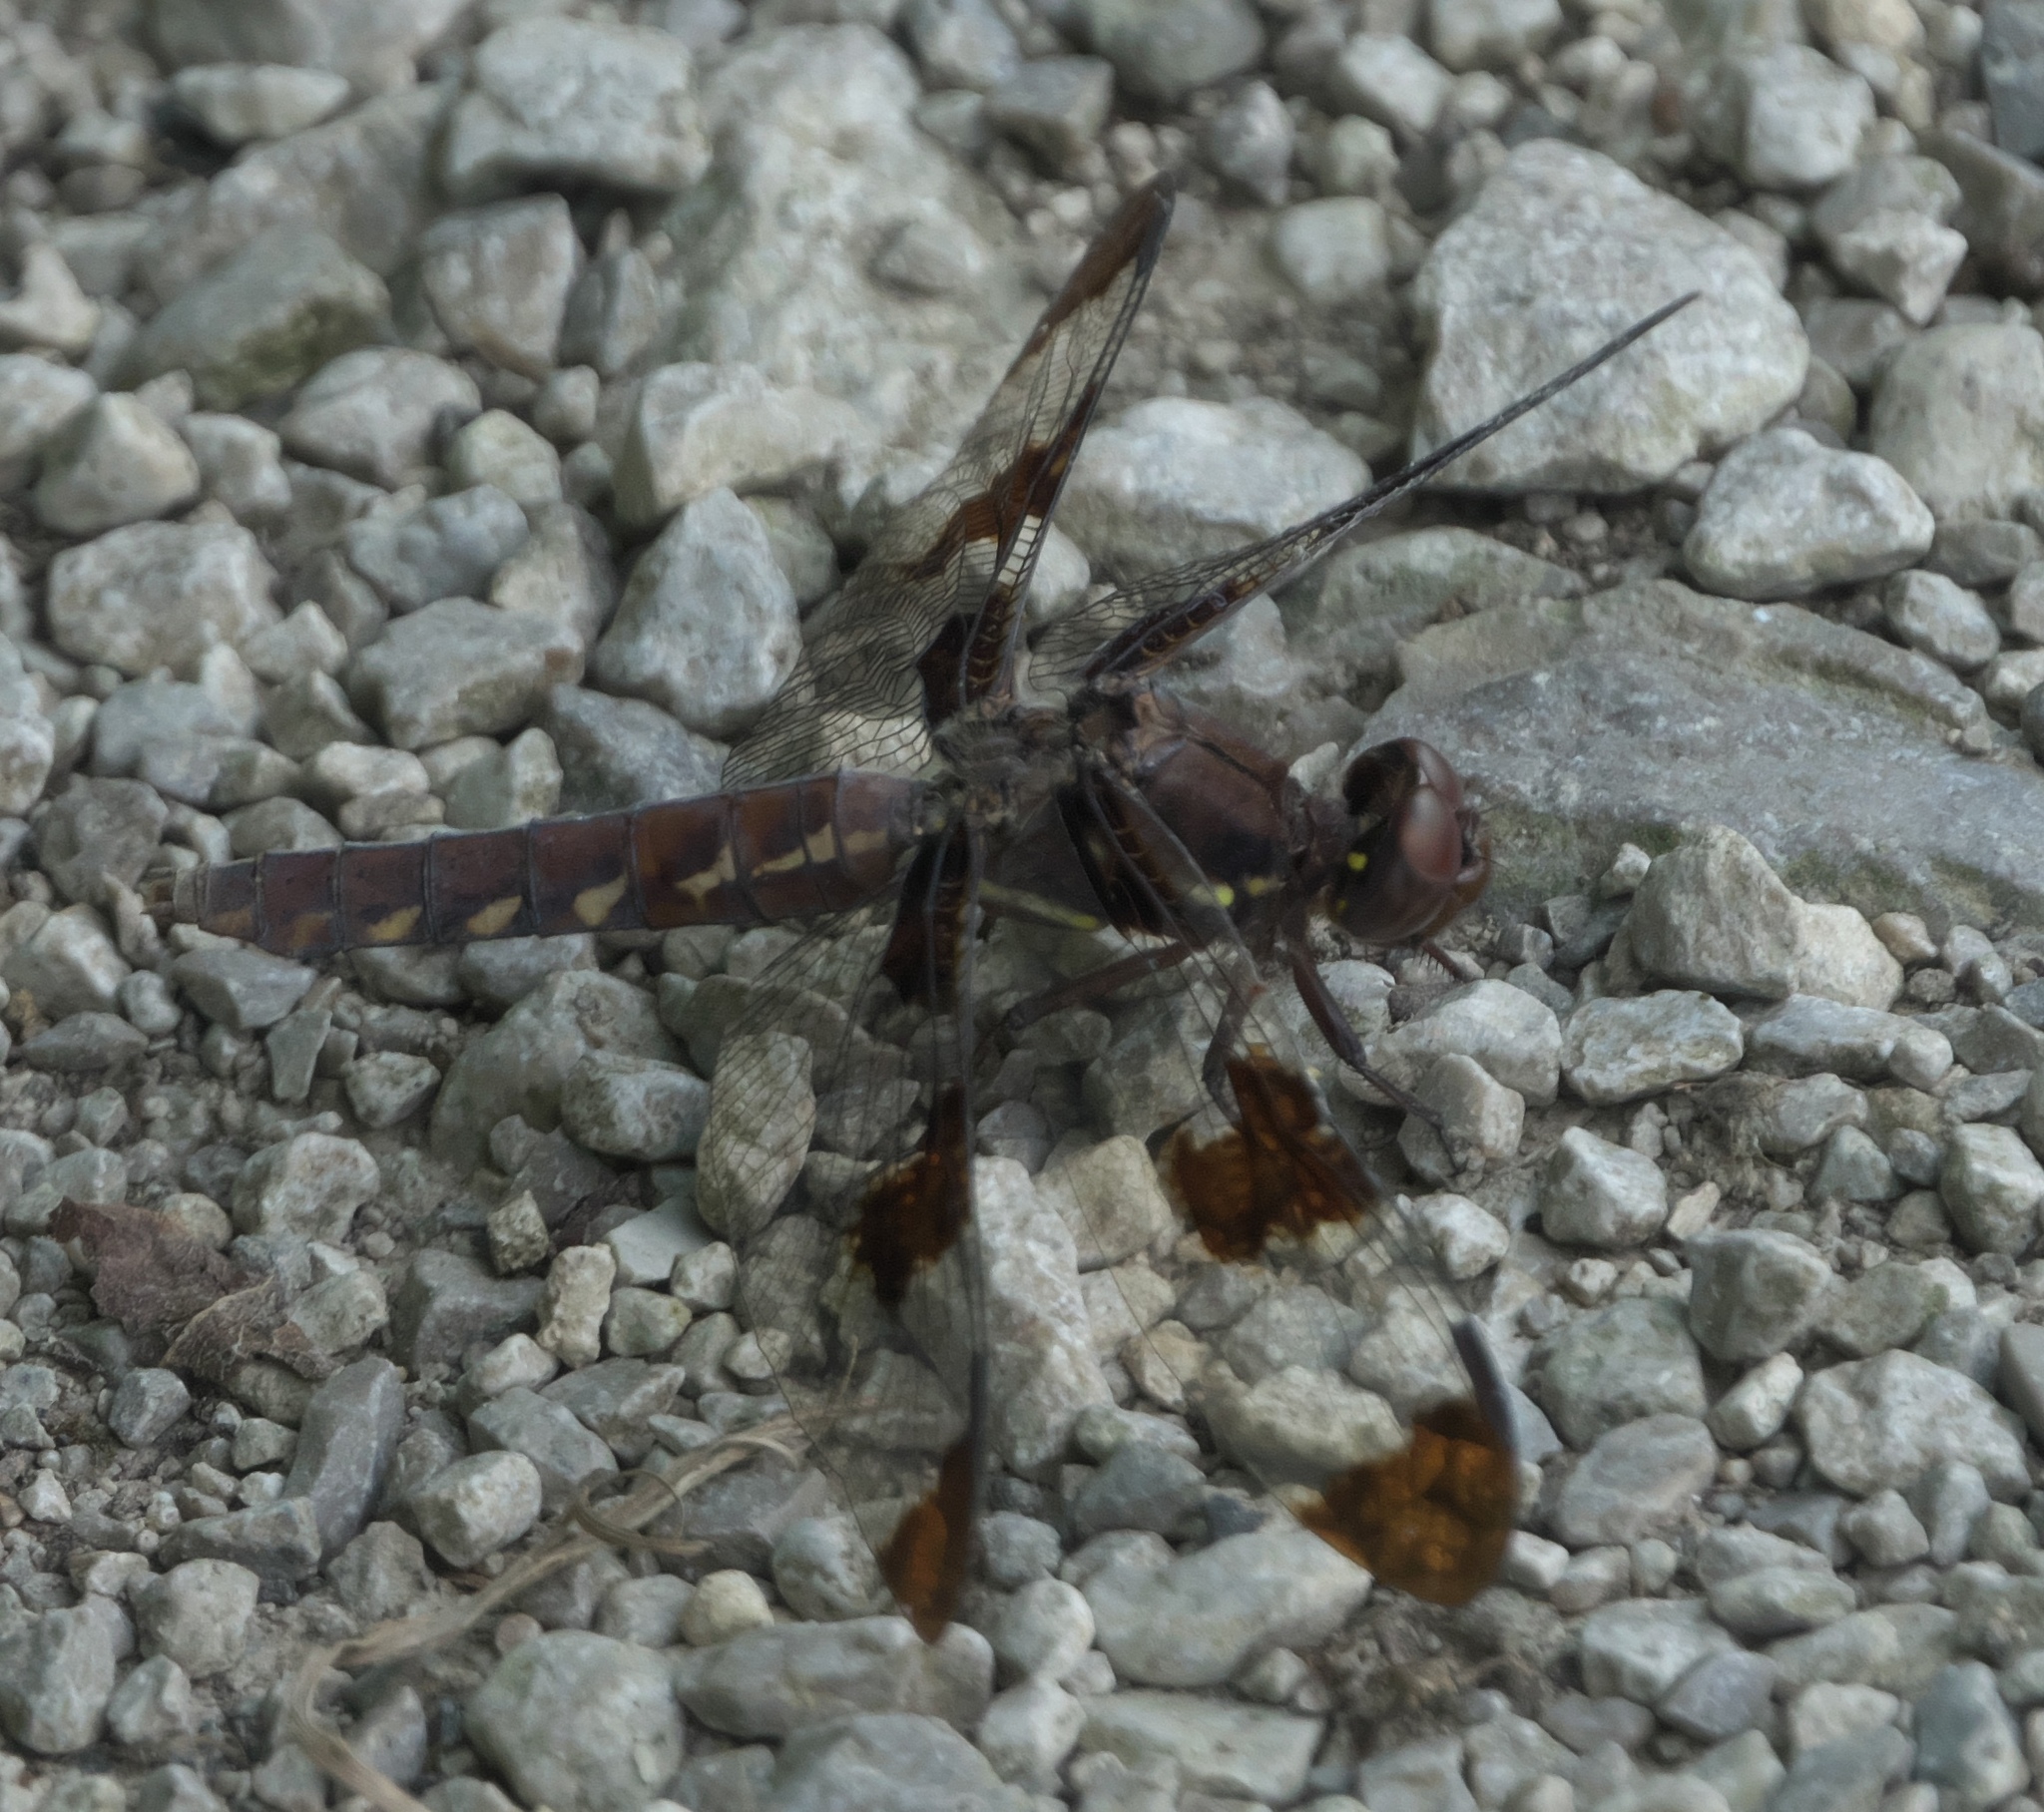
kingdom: Animalia
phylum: Arthropoda
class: Insecta
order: Odonata
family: Libellulidae
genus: Plathemis
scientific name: Plathemis lydia
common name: Common whitetail
